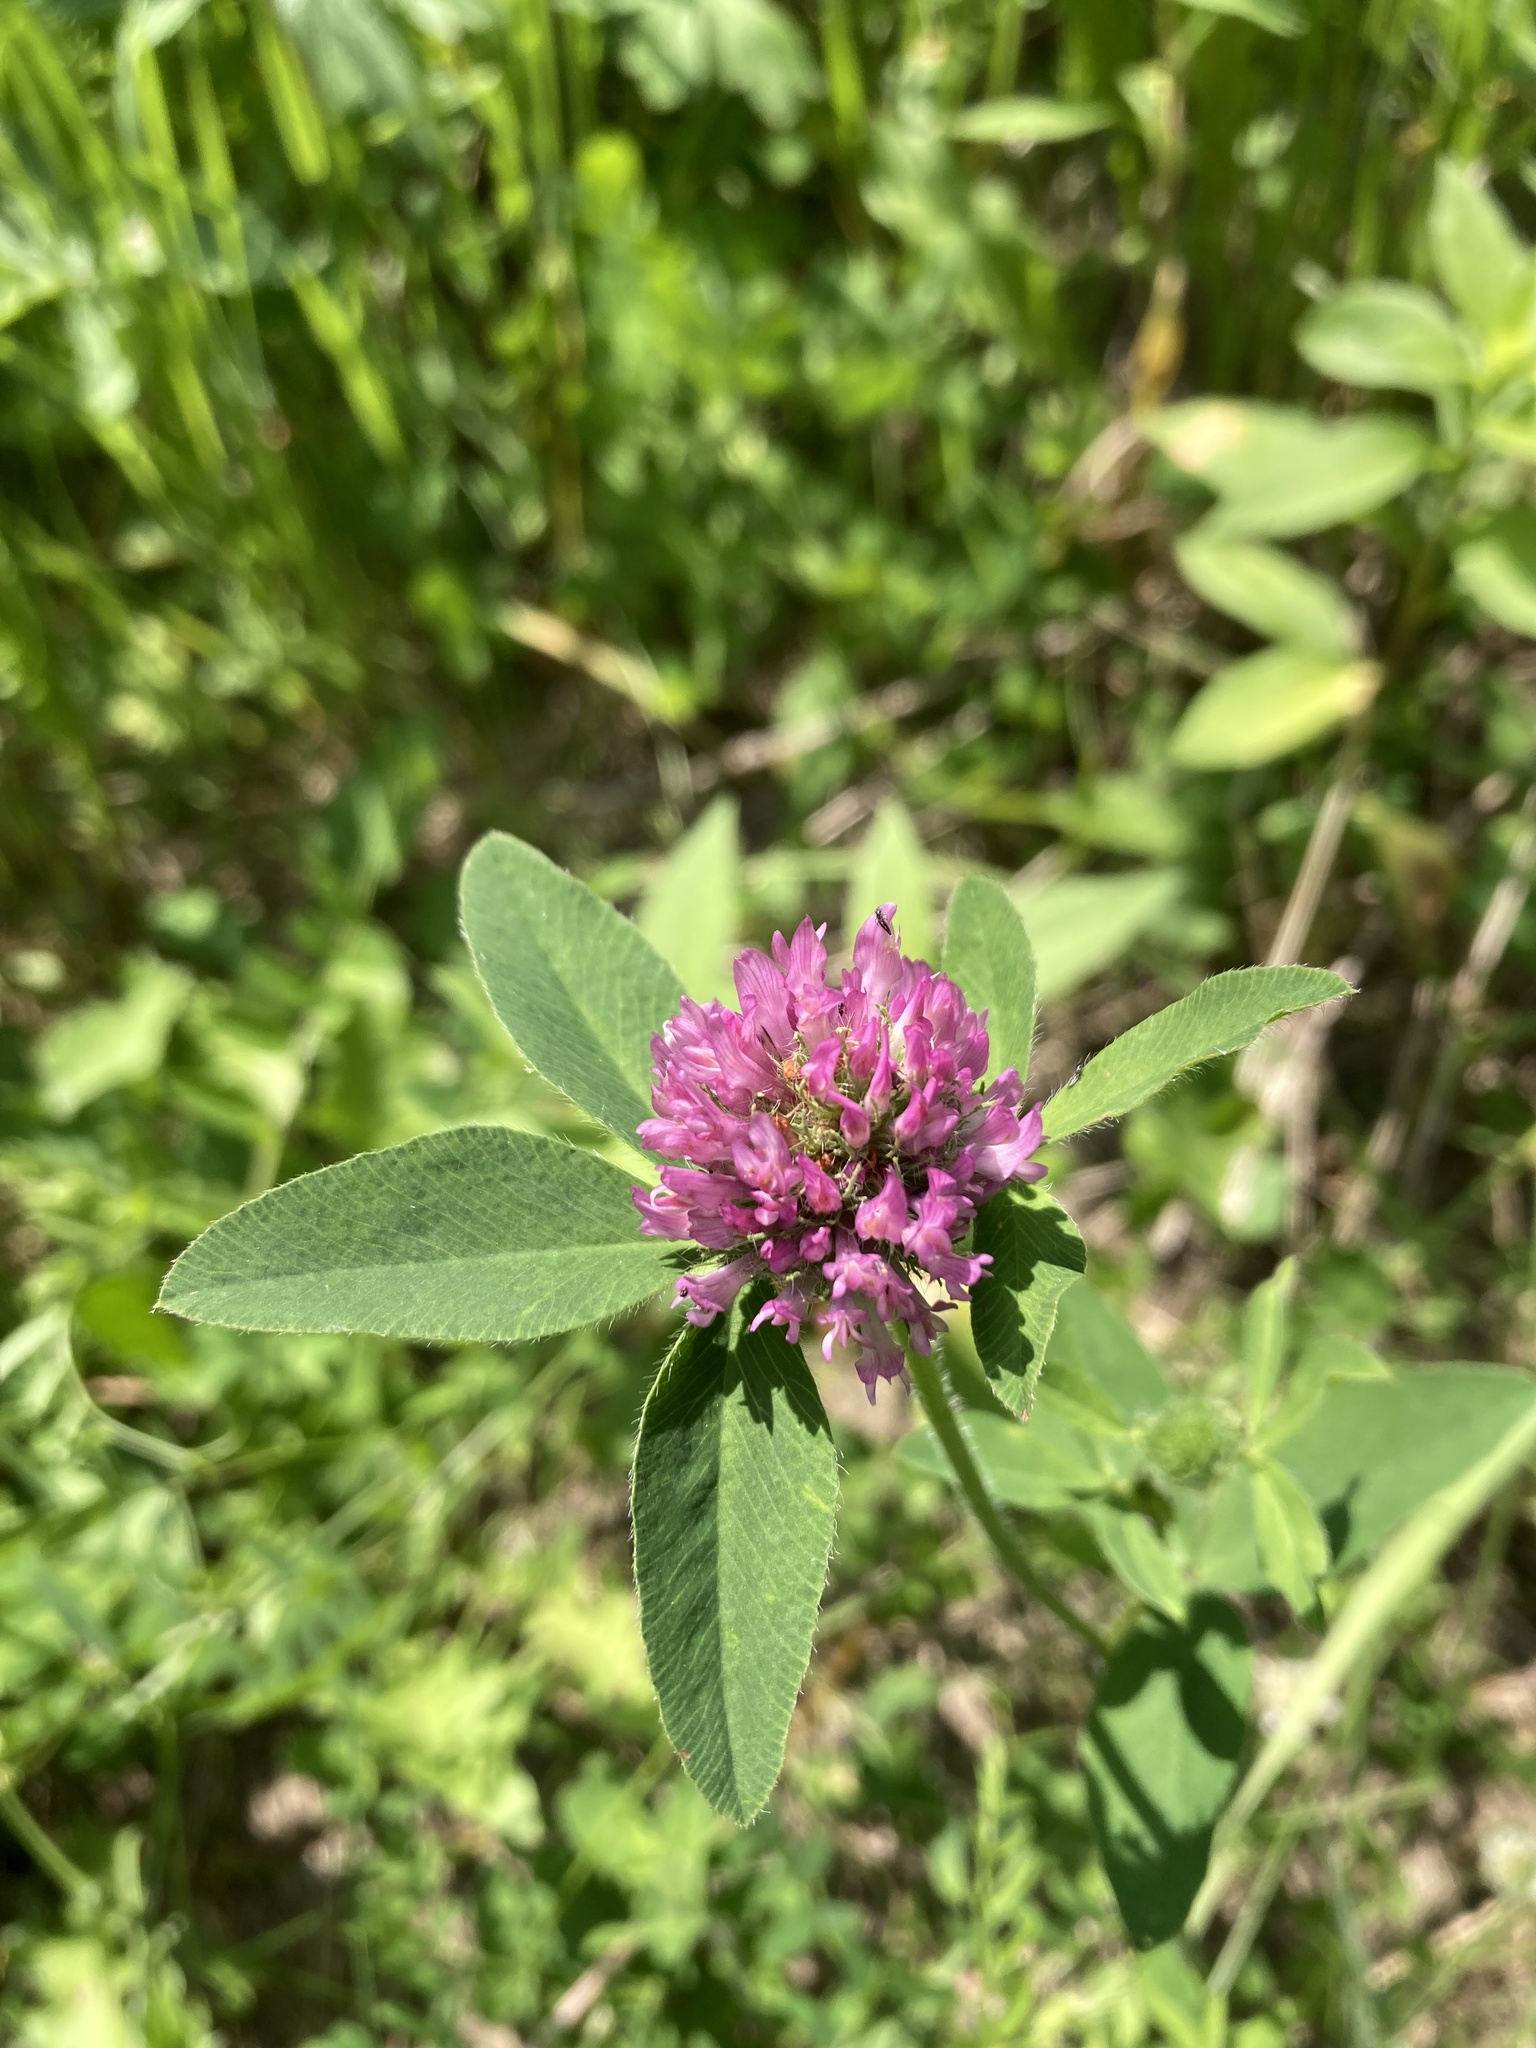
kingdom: Plantae
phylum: Tracheophyta
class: Magnoliopsida
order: Fabales
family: Fabaceae
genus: Trifolium
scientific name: Trifolium pratense
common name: Red clover
